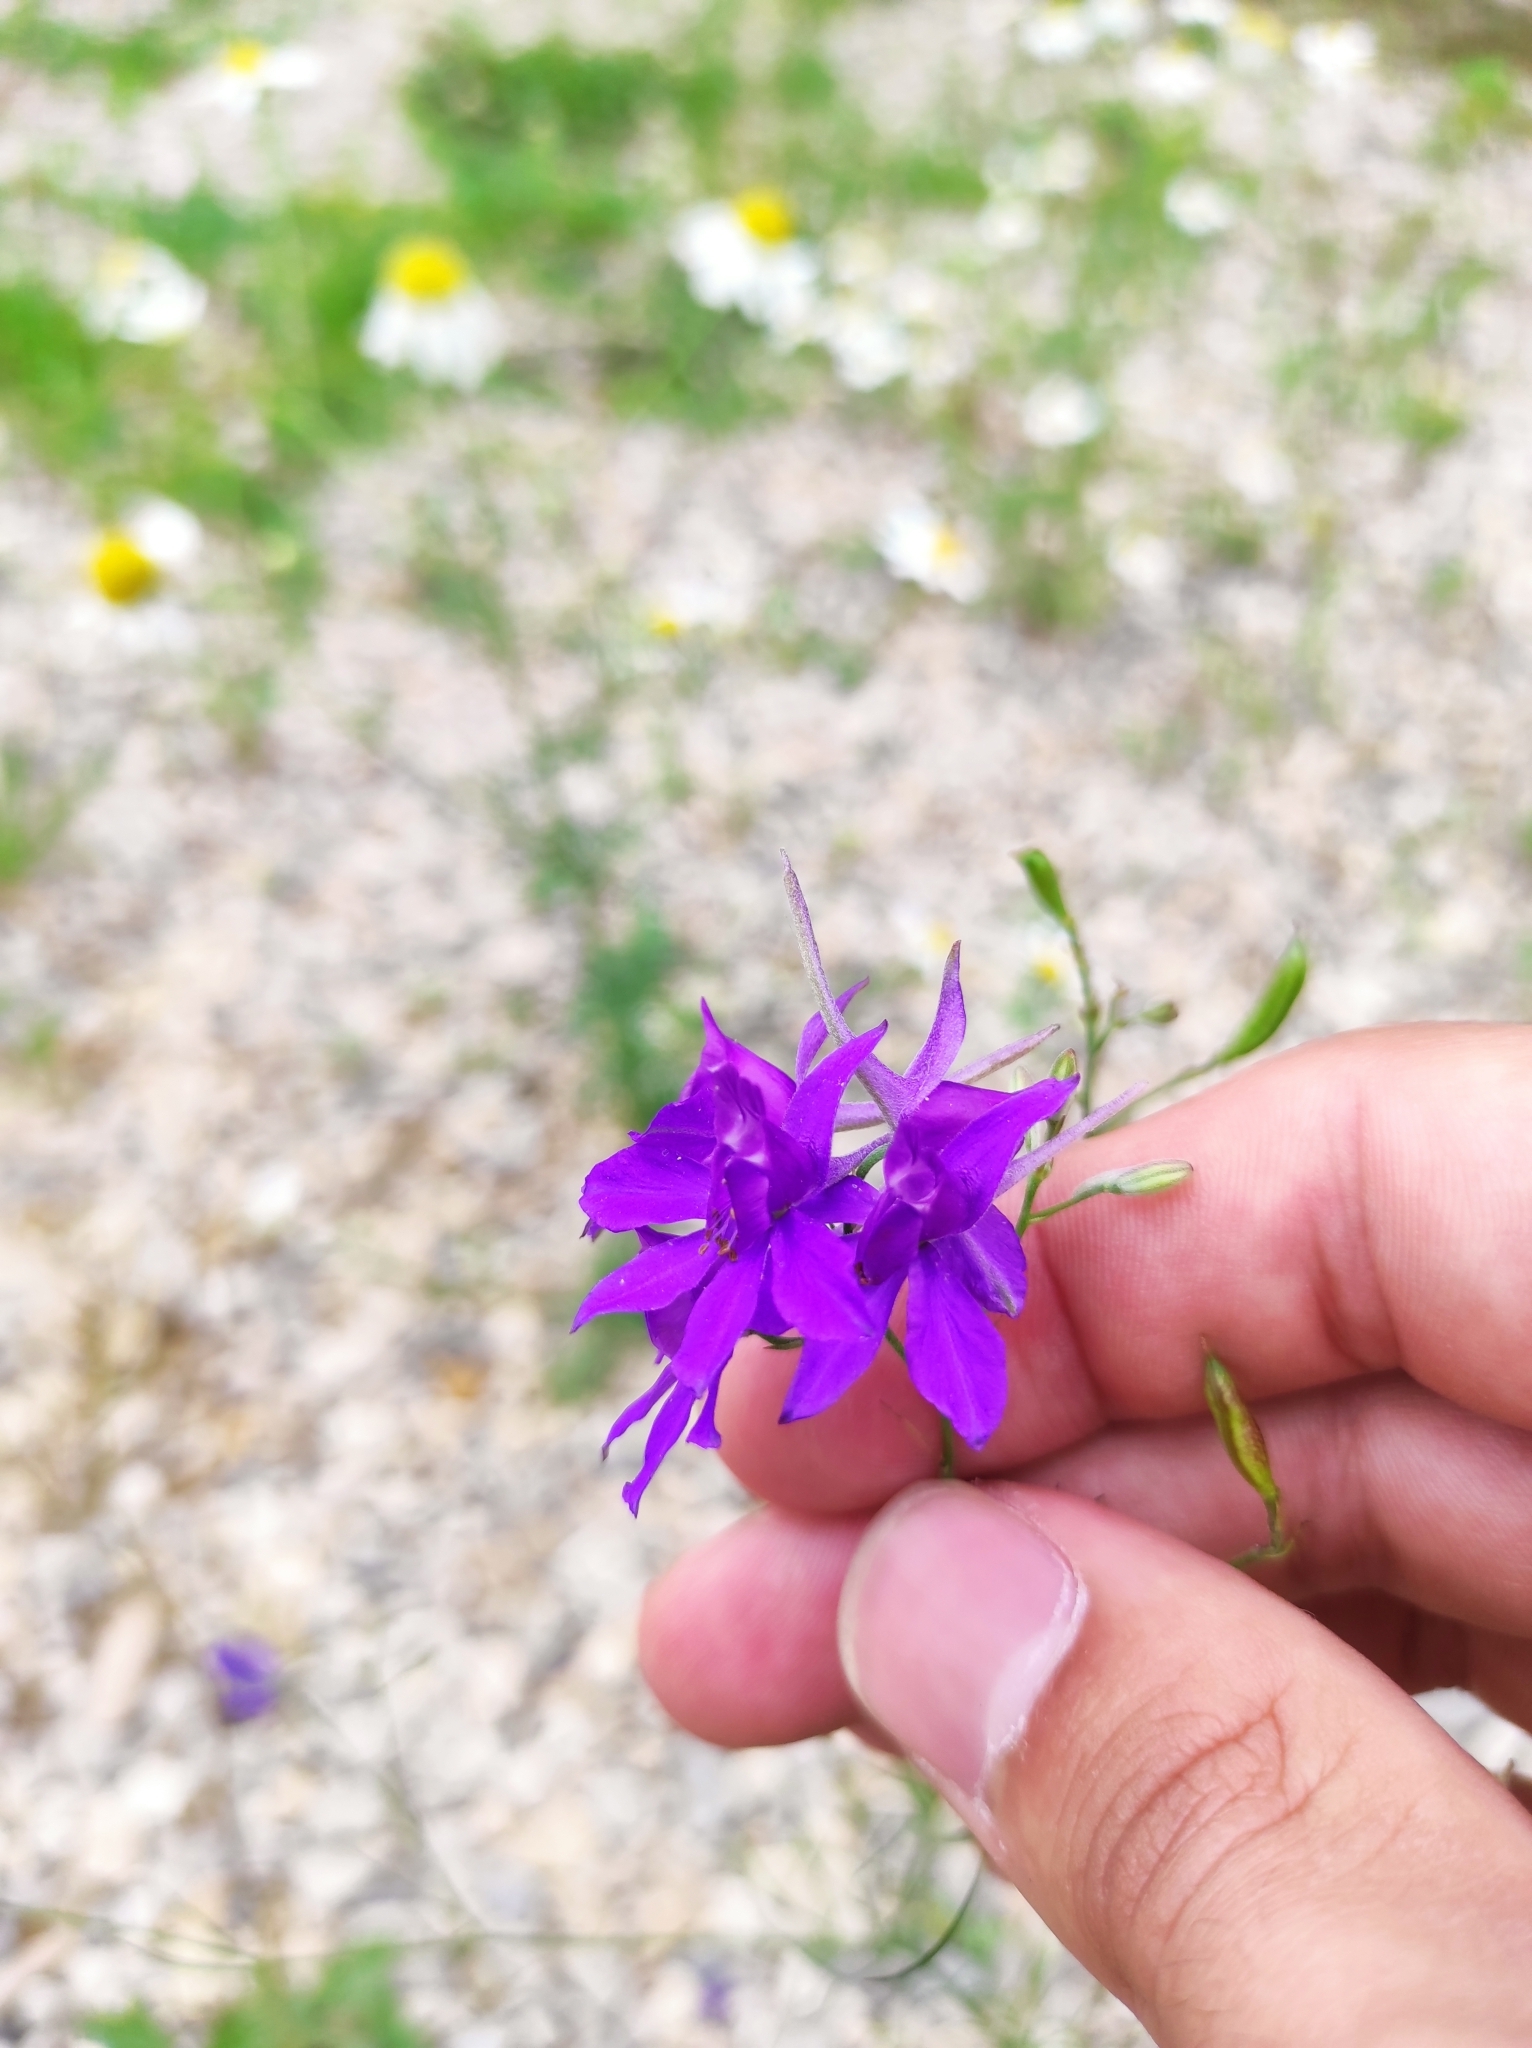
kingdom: Plantae
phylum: Tracheophyta
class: Magnoliopsida
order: Ranunculales
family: Ranunculaceae
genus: Delphinium
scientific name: Delphinium consolida
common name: Branching larkspur
